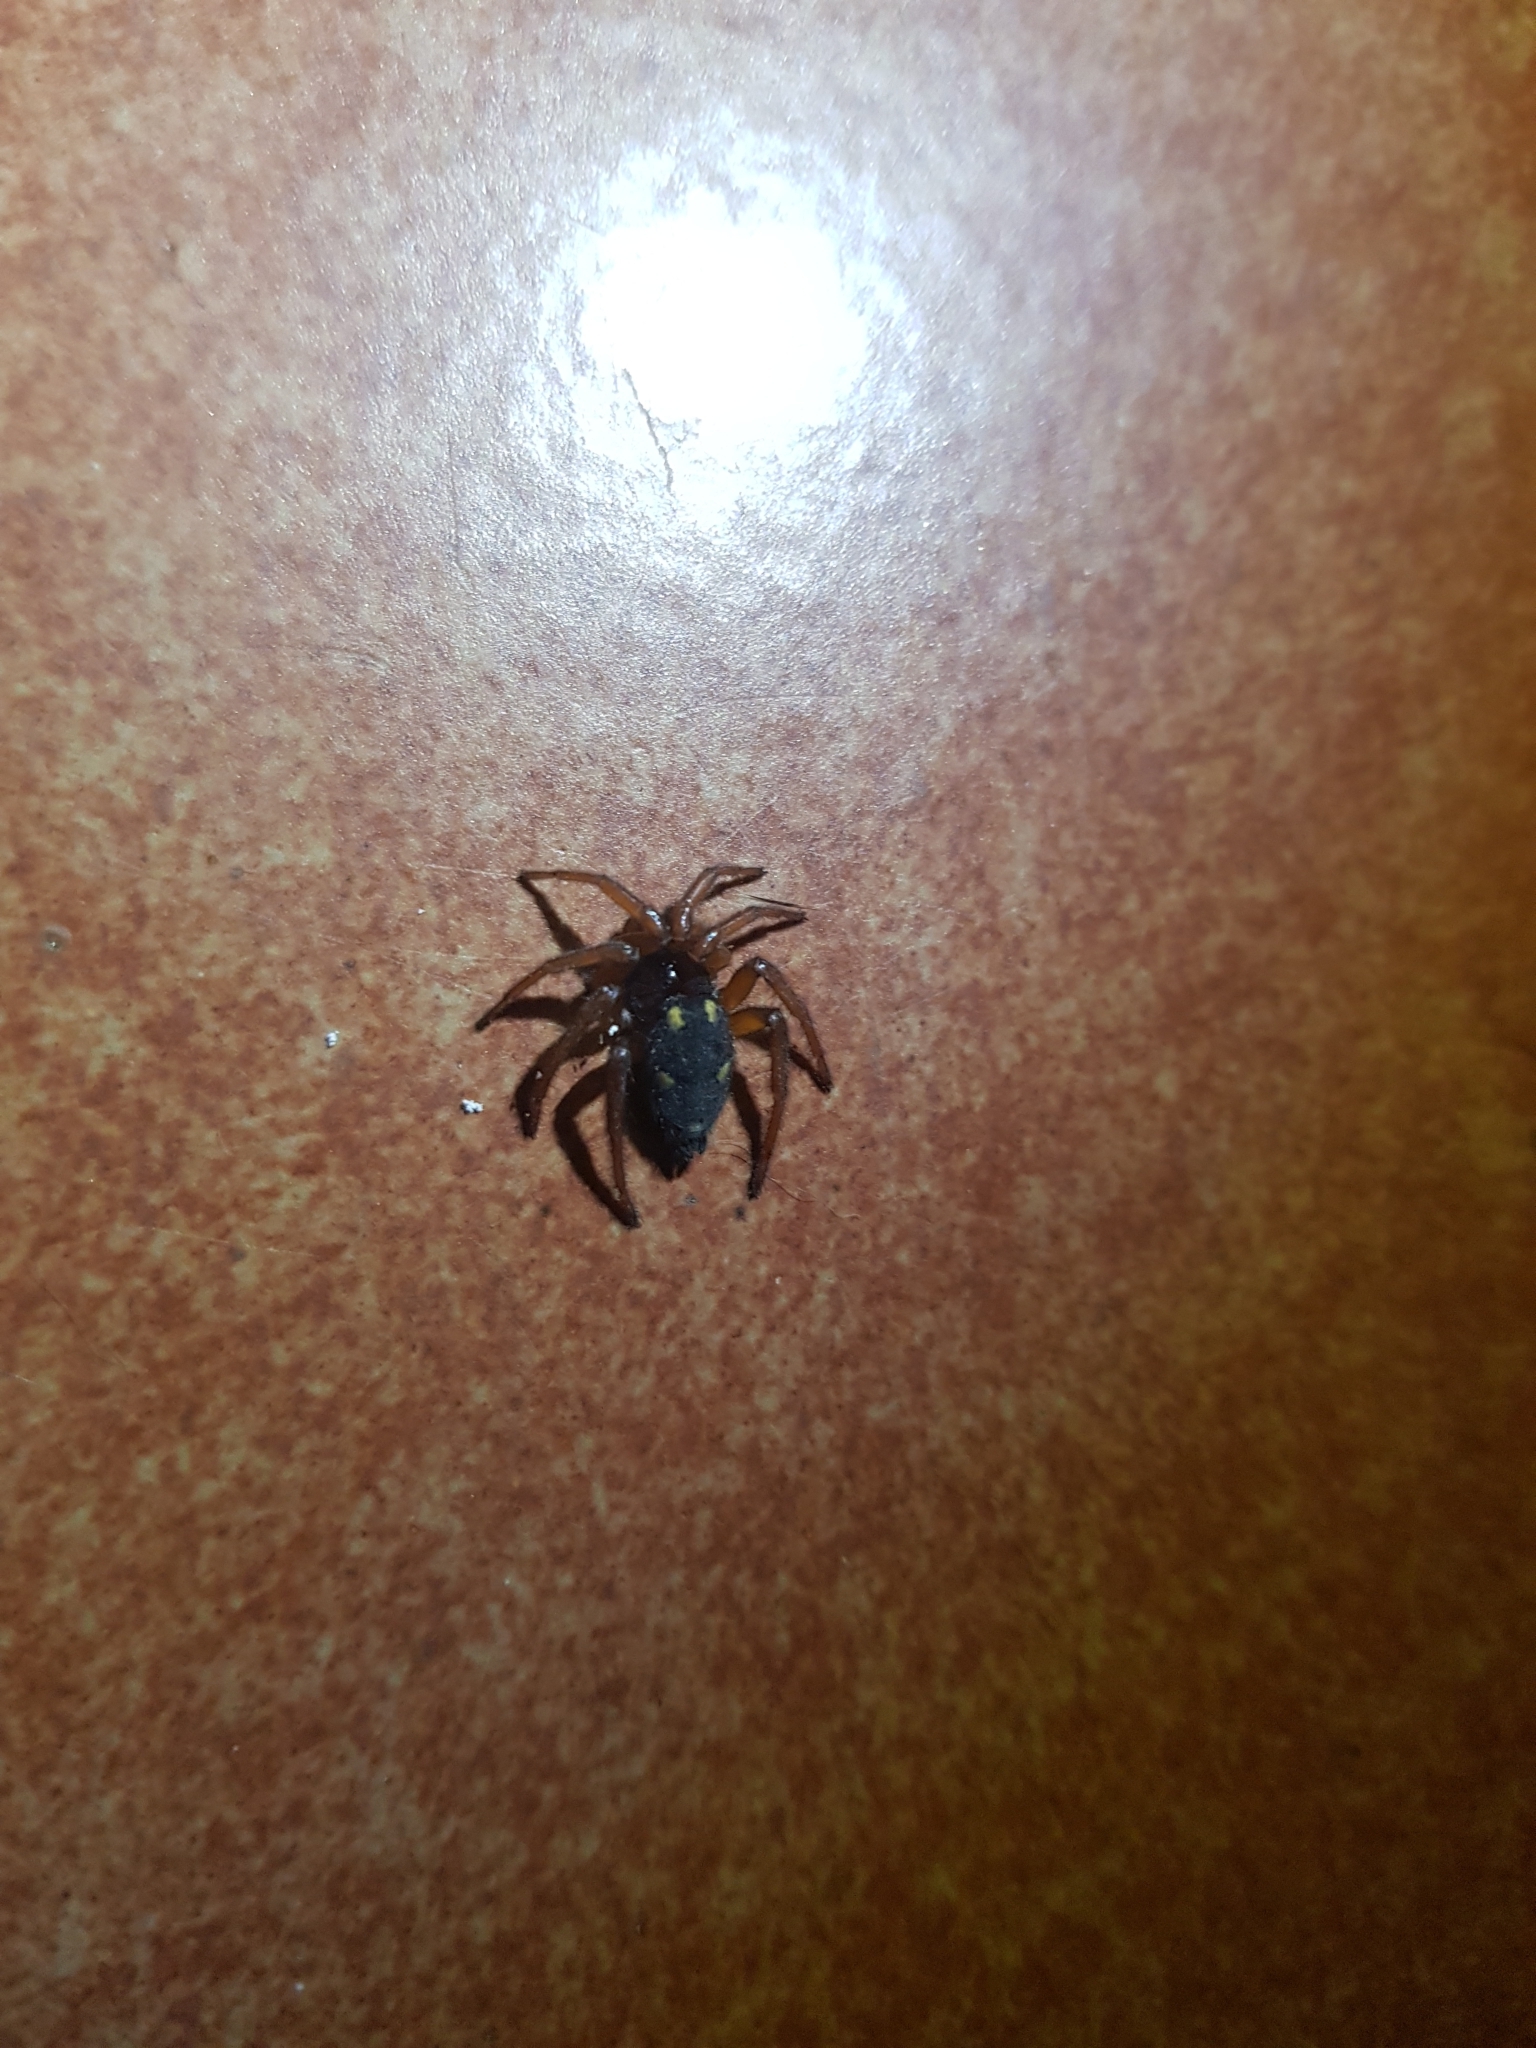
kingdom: Animalia
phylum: Arthropoda
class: Arachnida
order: Araneae
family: Oecobiidae
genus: Uroctea
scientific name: Uroctea durandi
